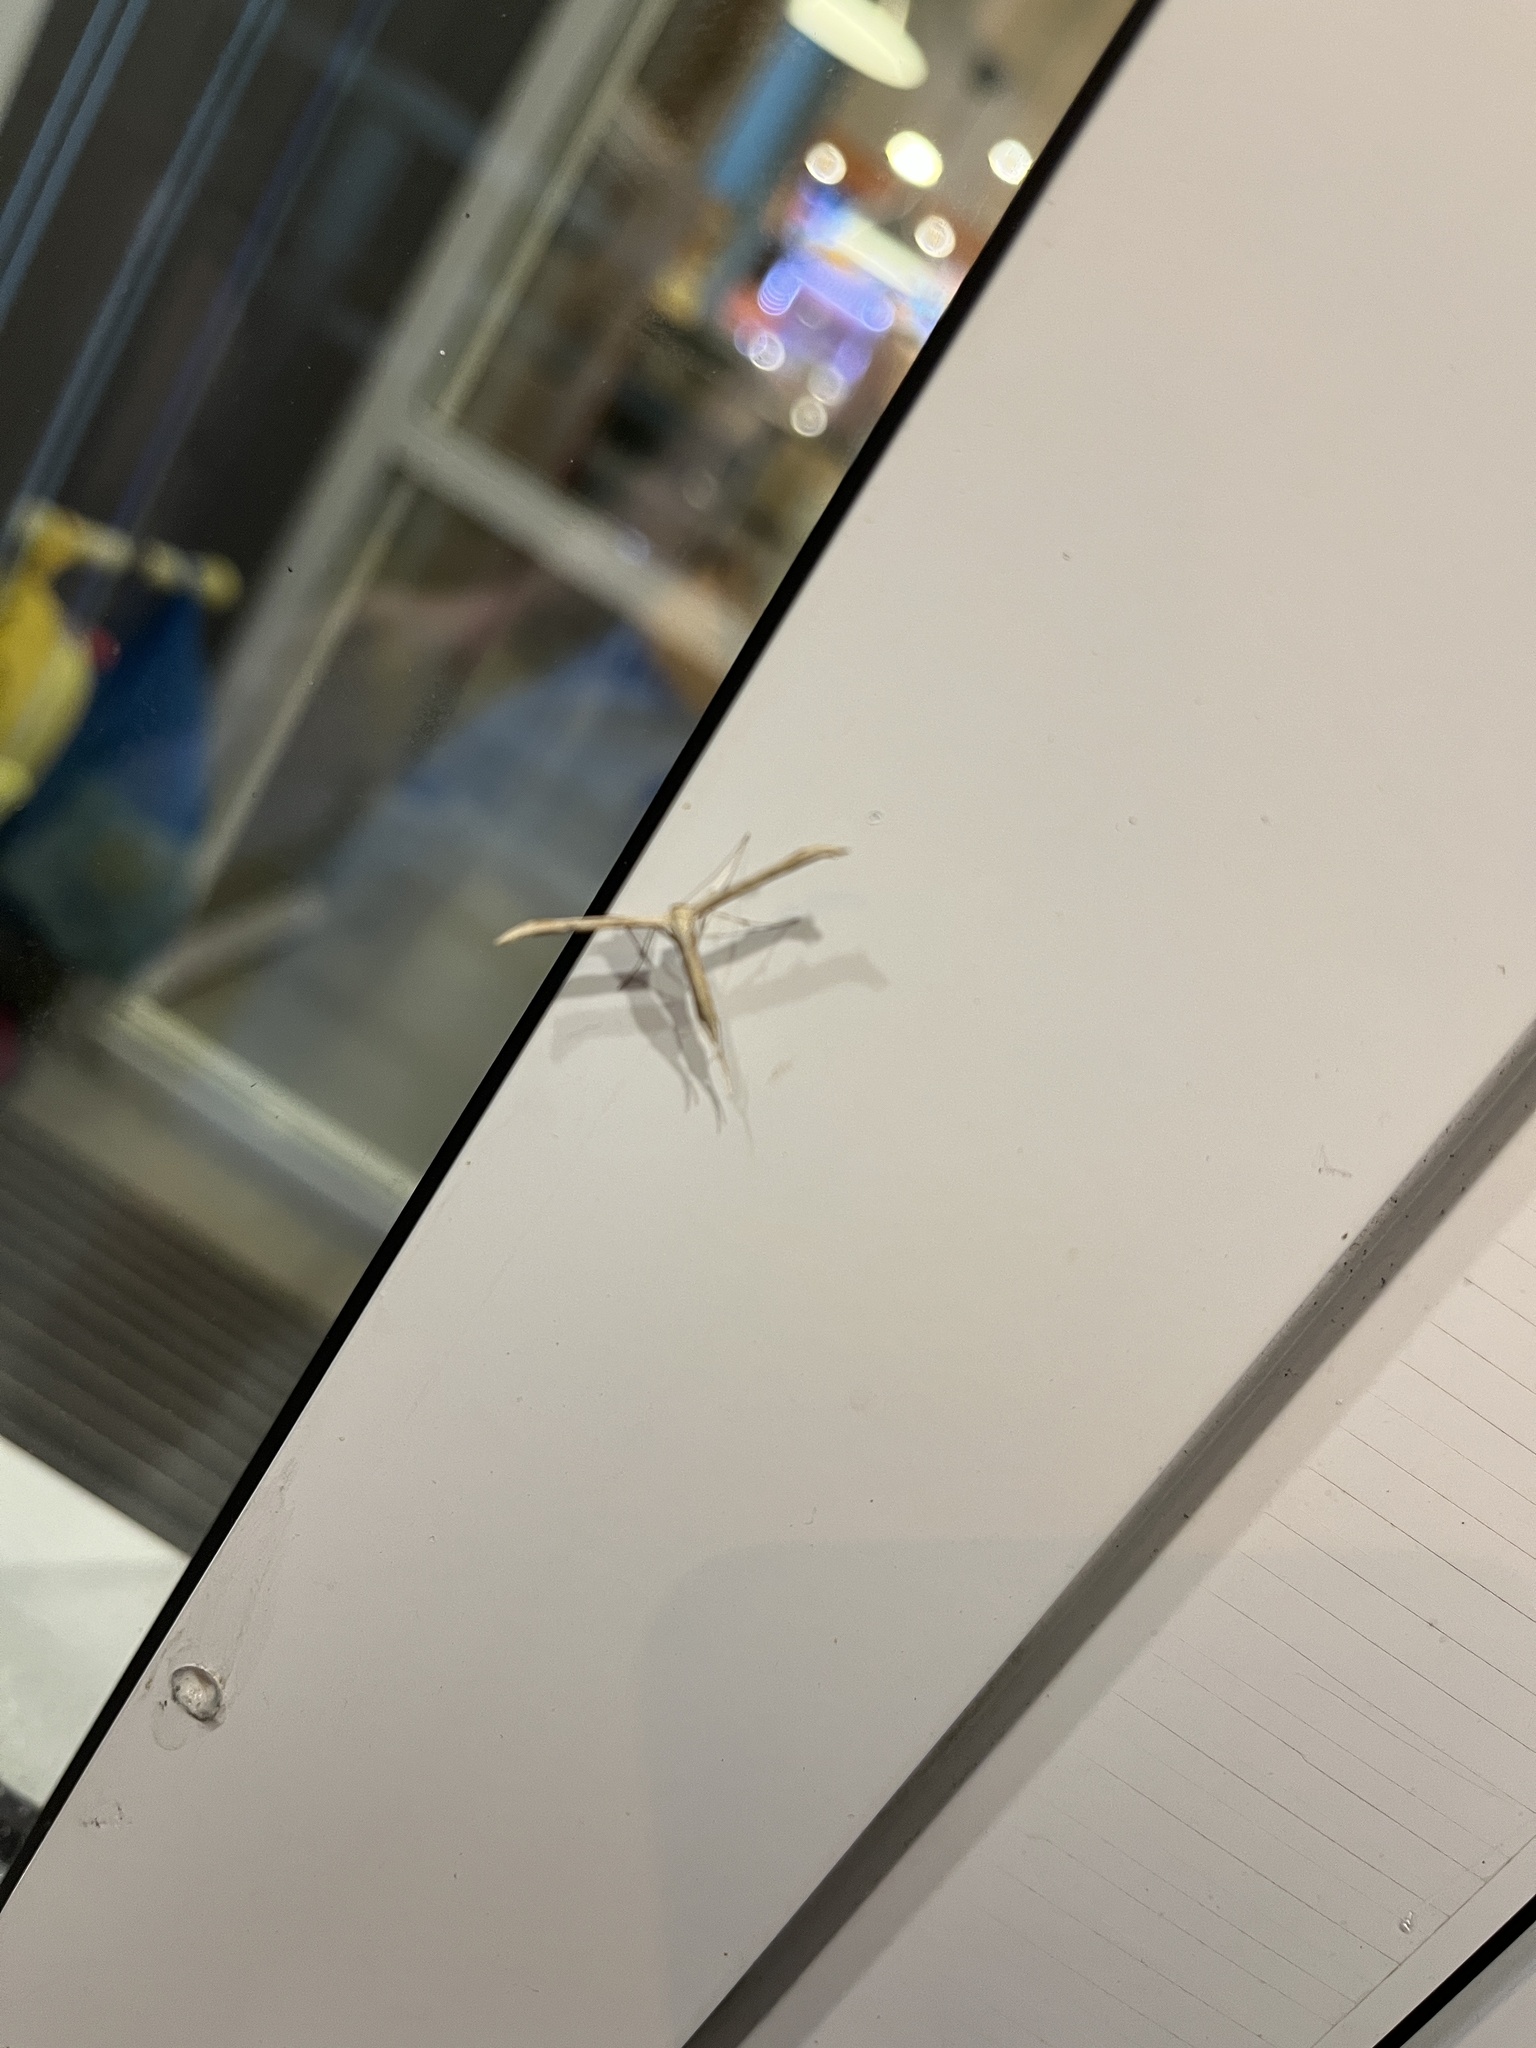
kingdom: Animalia
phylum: Arthropoda
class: Insecta
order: Lepidoptera
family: Pterophoridae
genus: Emmelina
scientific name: Emmelina monodactyla
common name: Common plume
